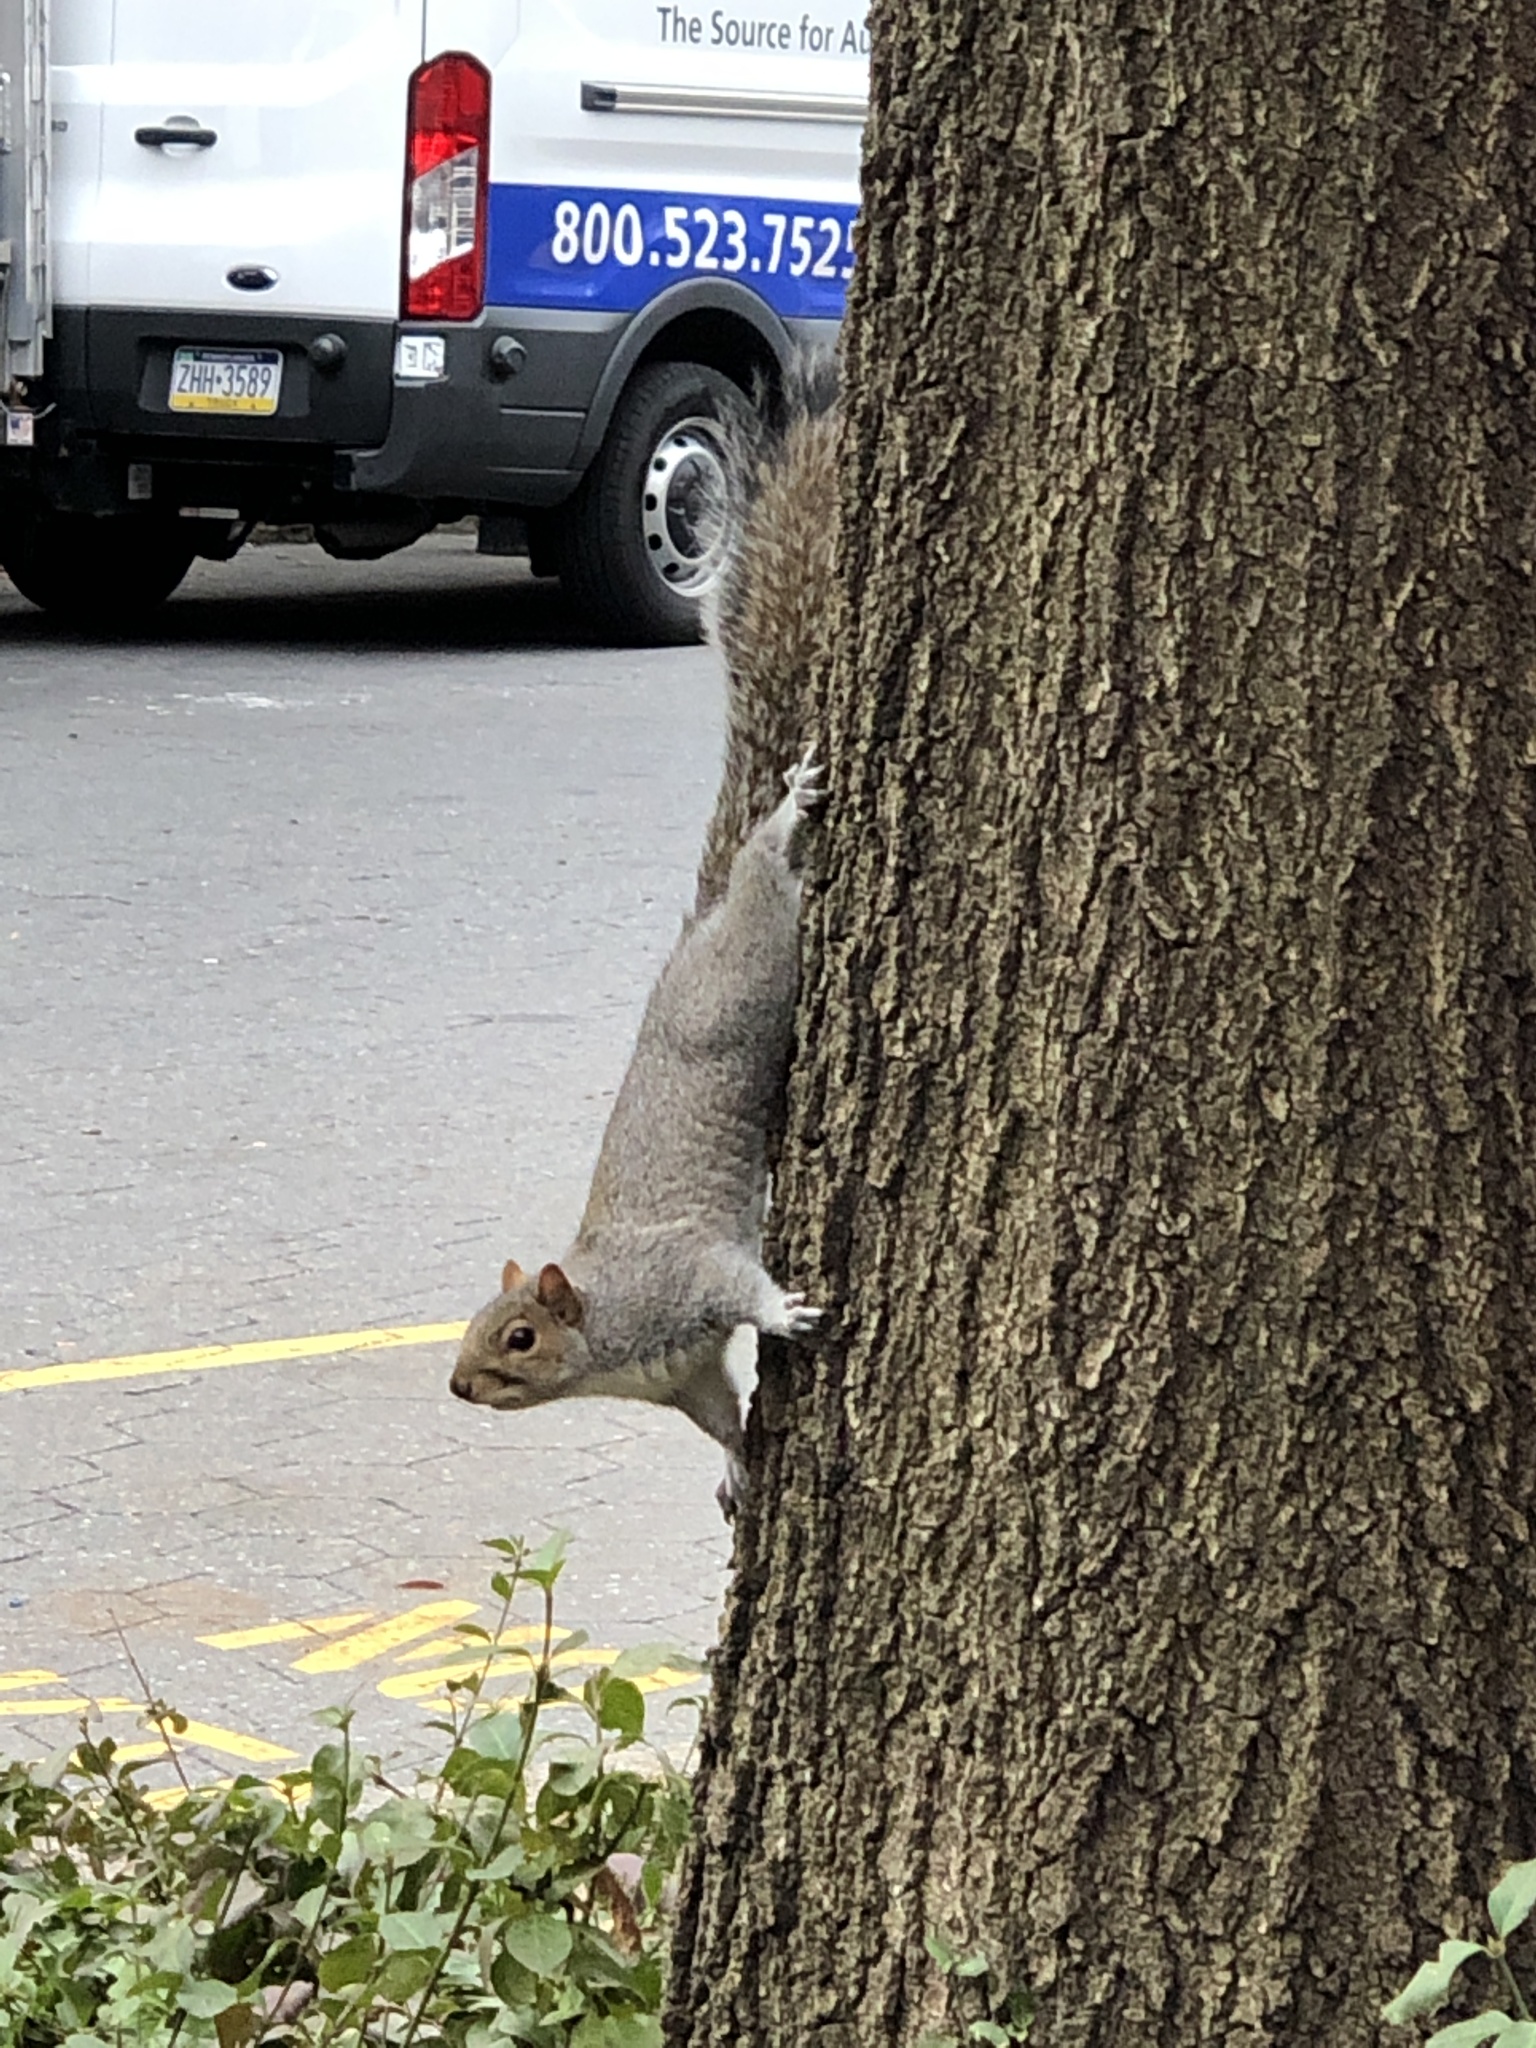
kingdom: Animalia
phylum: Chordata
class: Mammalia
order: Rodentia
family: Sciuridae
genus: Sciurus
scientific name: Sciurus carolinensis
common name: Eastern gray squirrel
